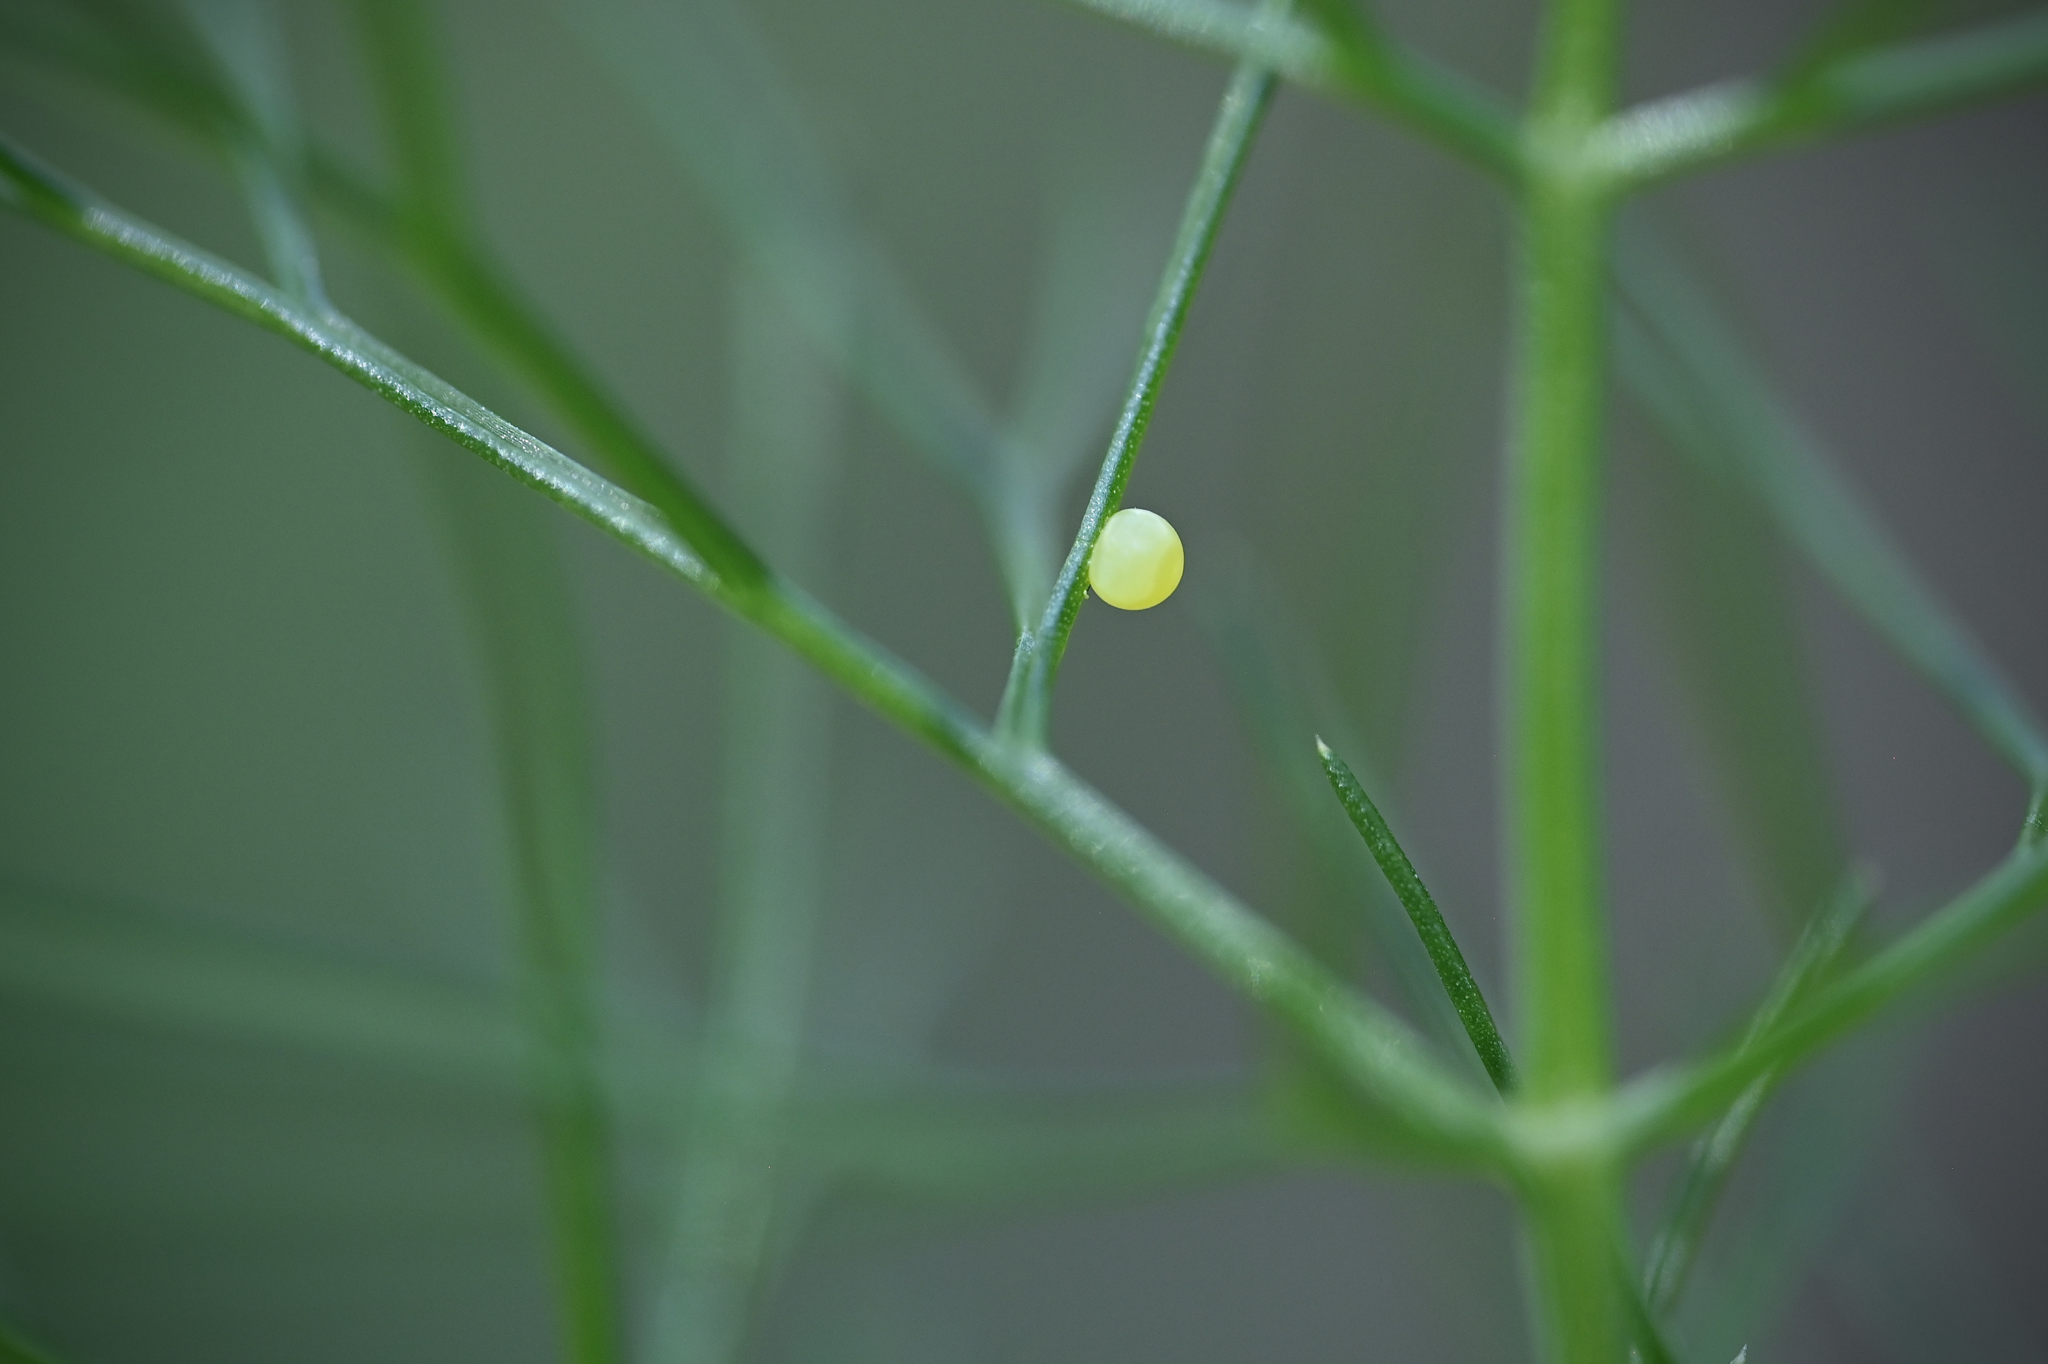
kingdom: Animalia
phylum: Arthropoda
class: Insecta
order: Lepidoptera
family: Papilionidae
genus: Papilio
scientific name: Papilio polyxenes
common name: Black swallowtail
